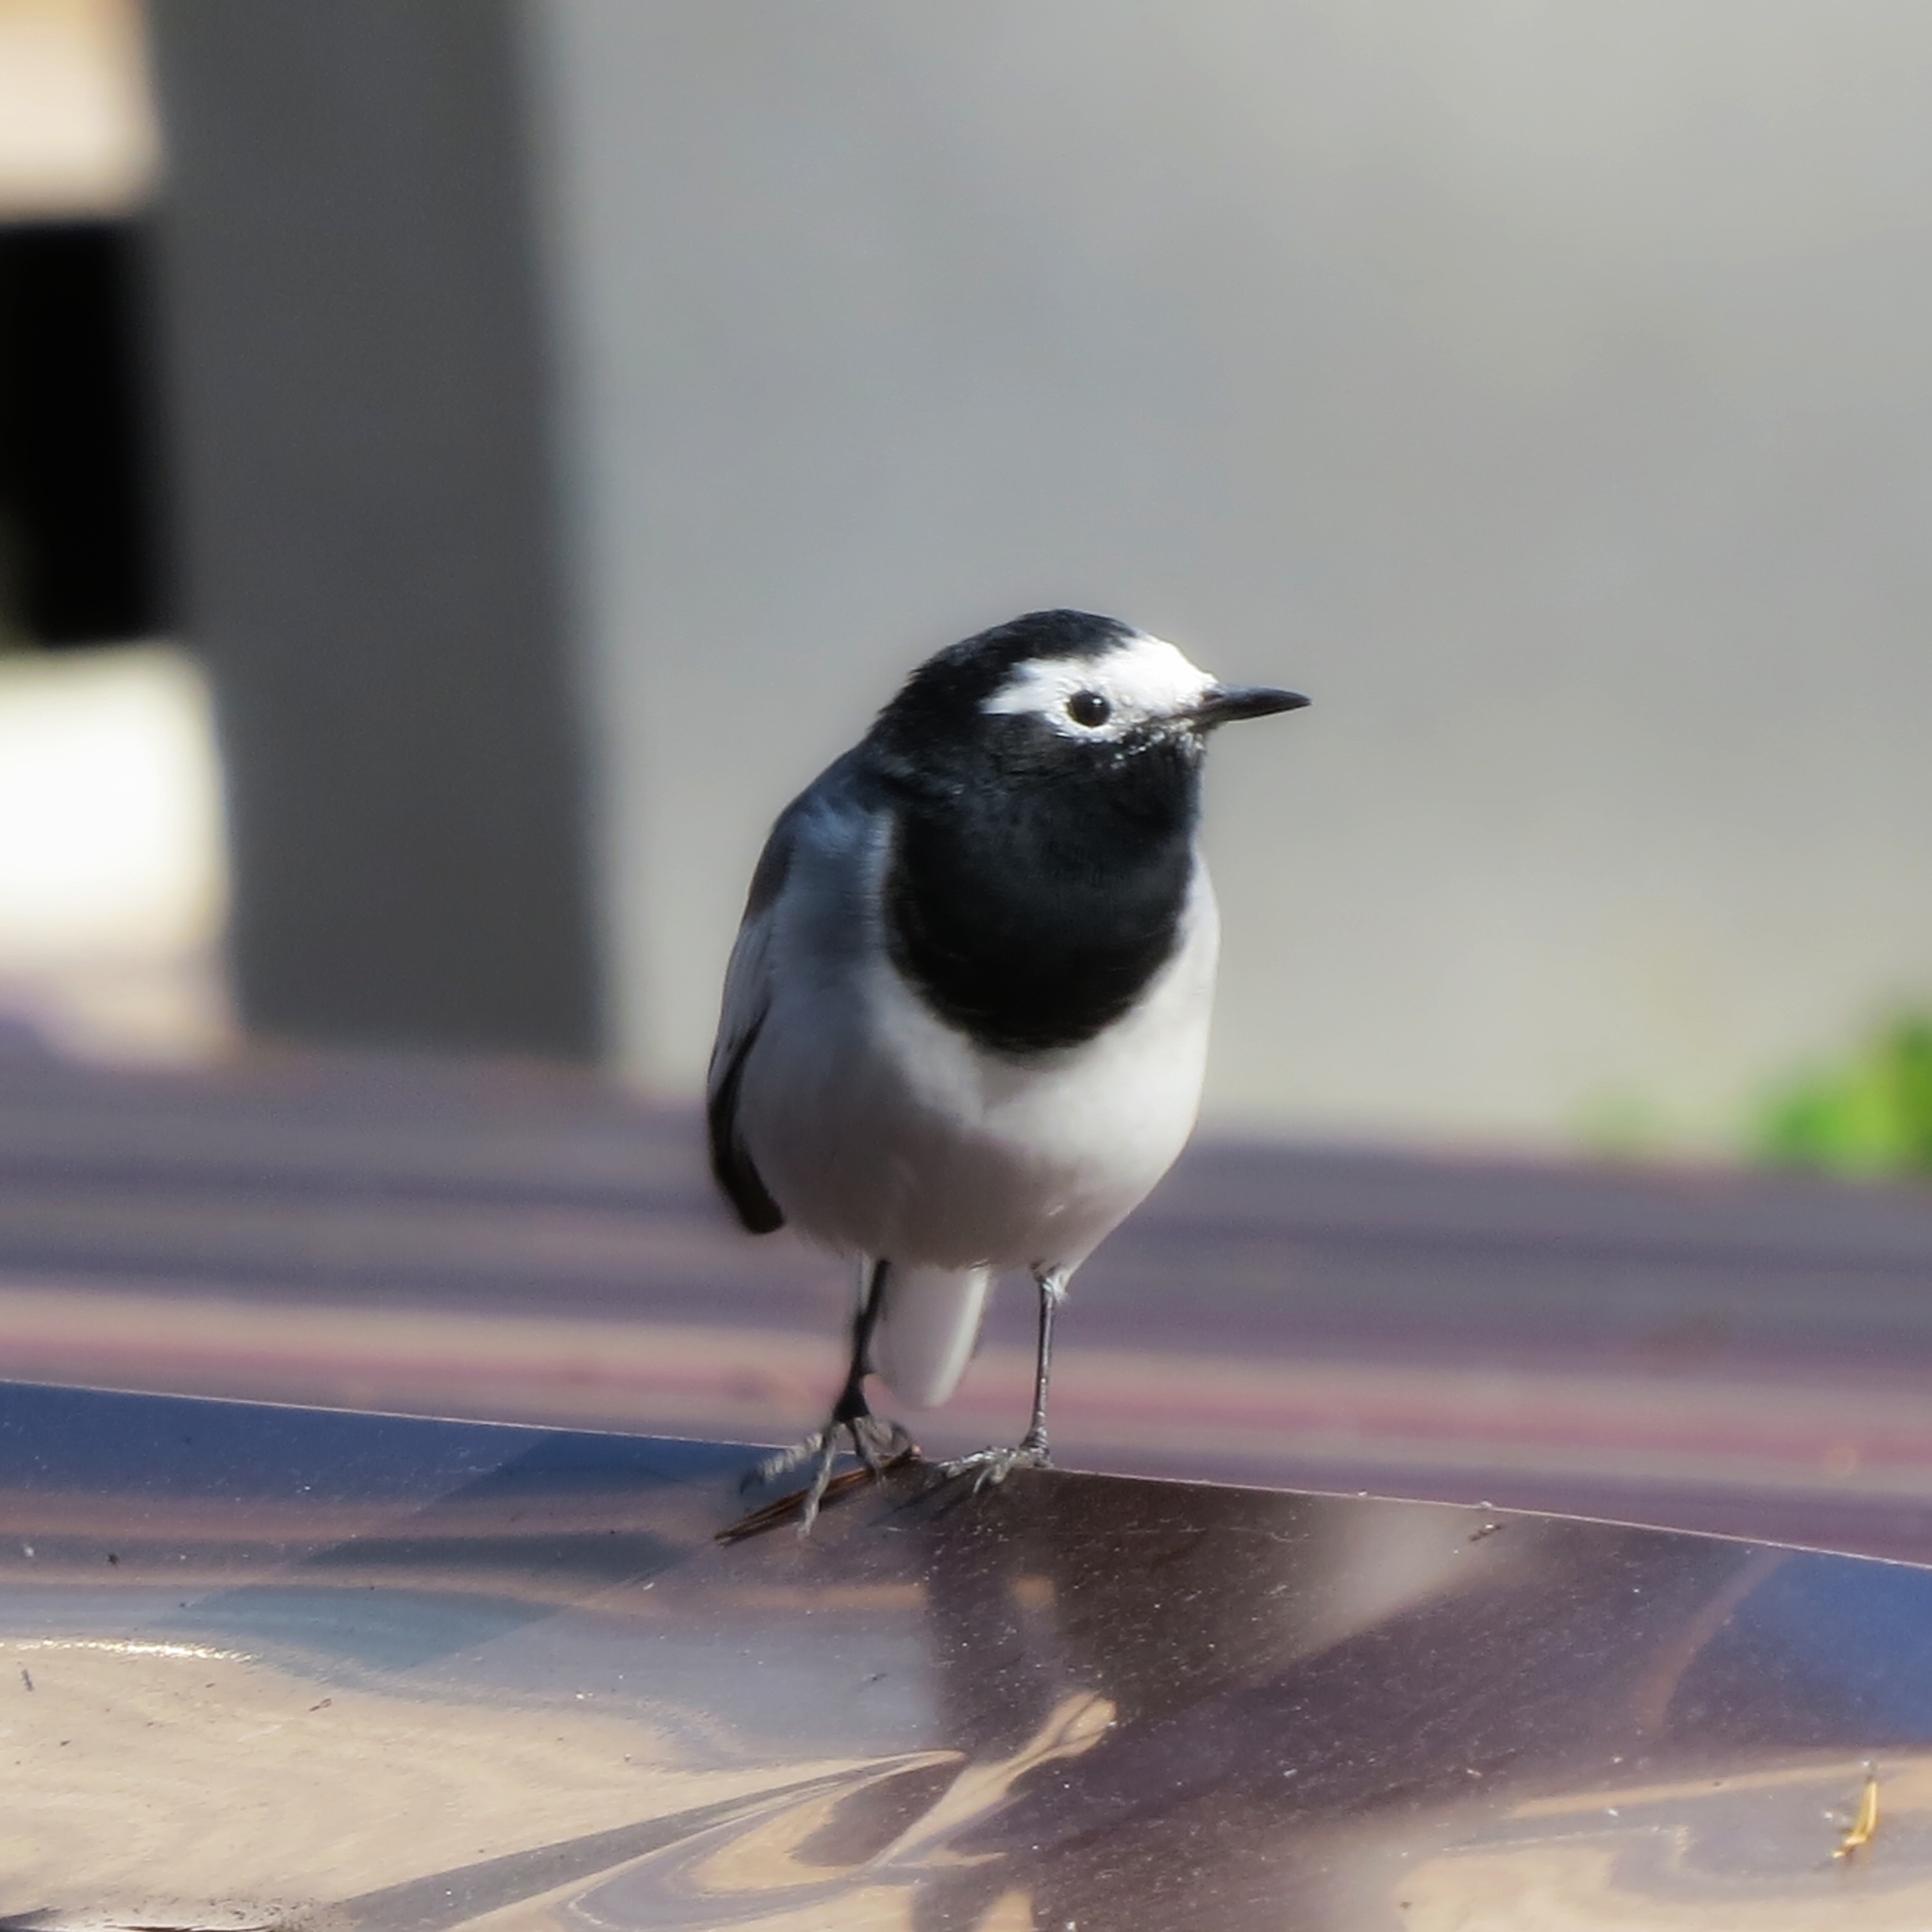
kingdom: Animalia
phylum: Chordata
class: Aves
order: Passeriformes
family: Motacillidae
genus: Motacilla
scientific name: Motacilla alba
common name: White wagtail
